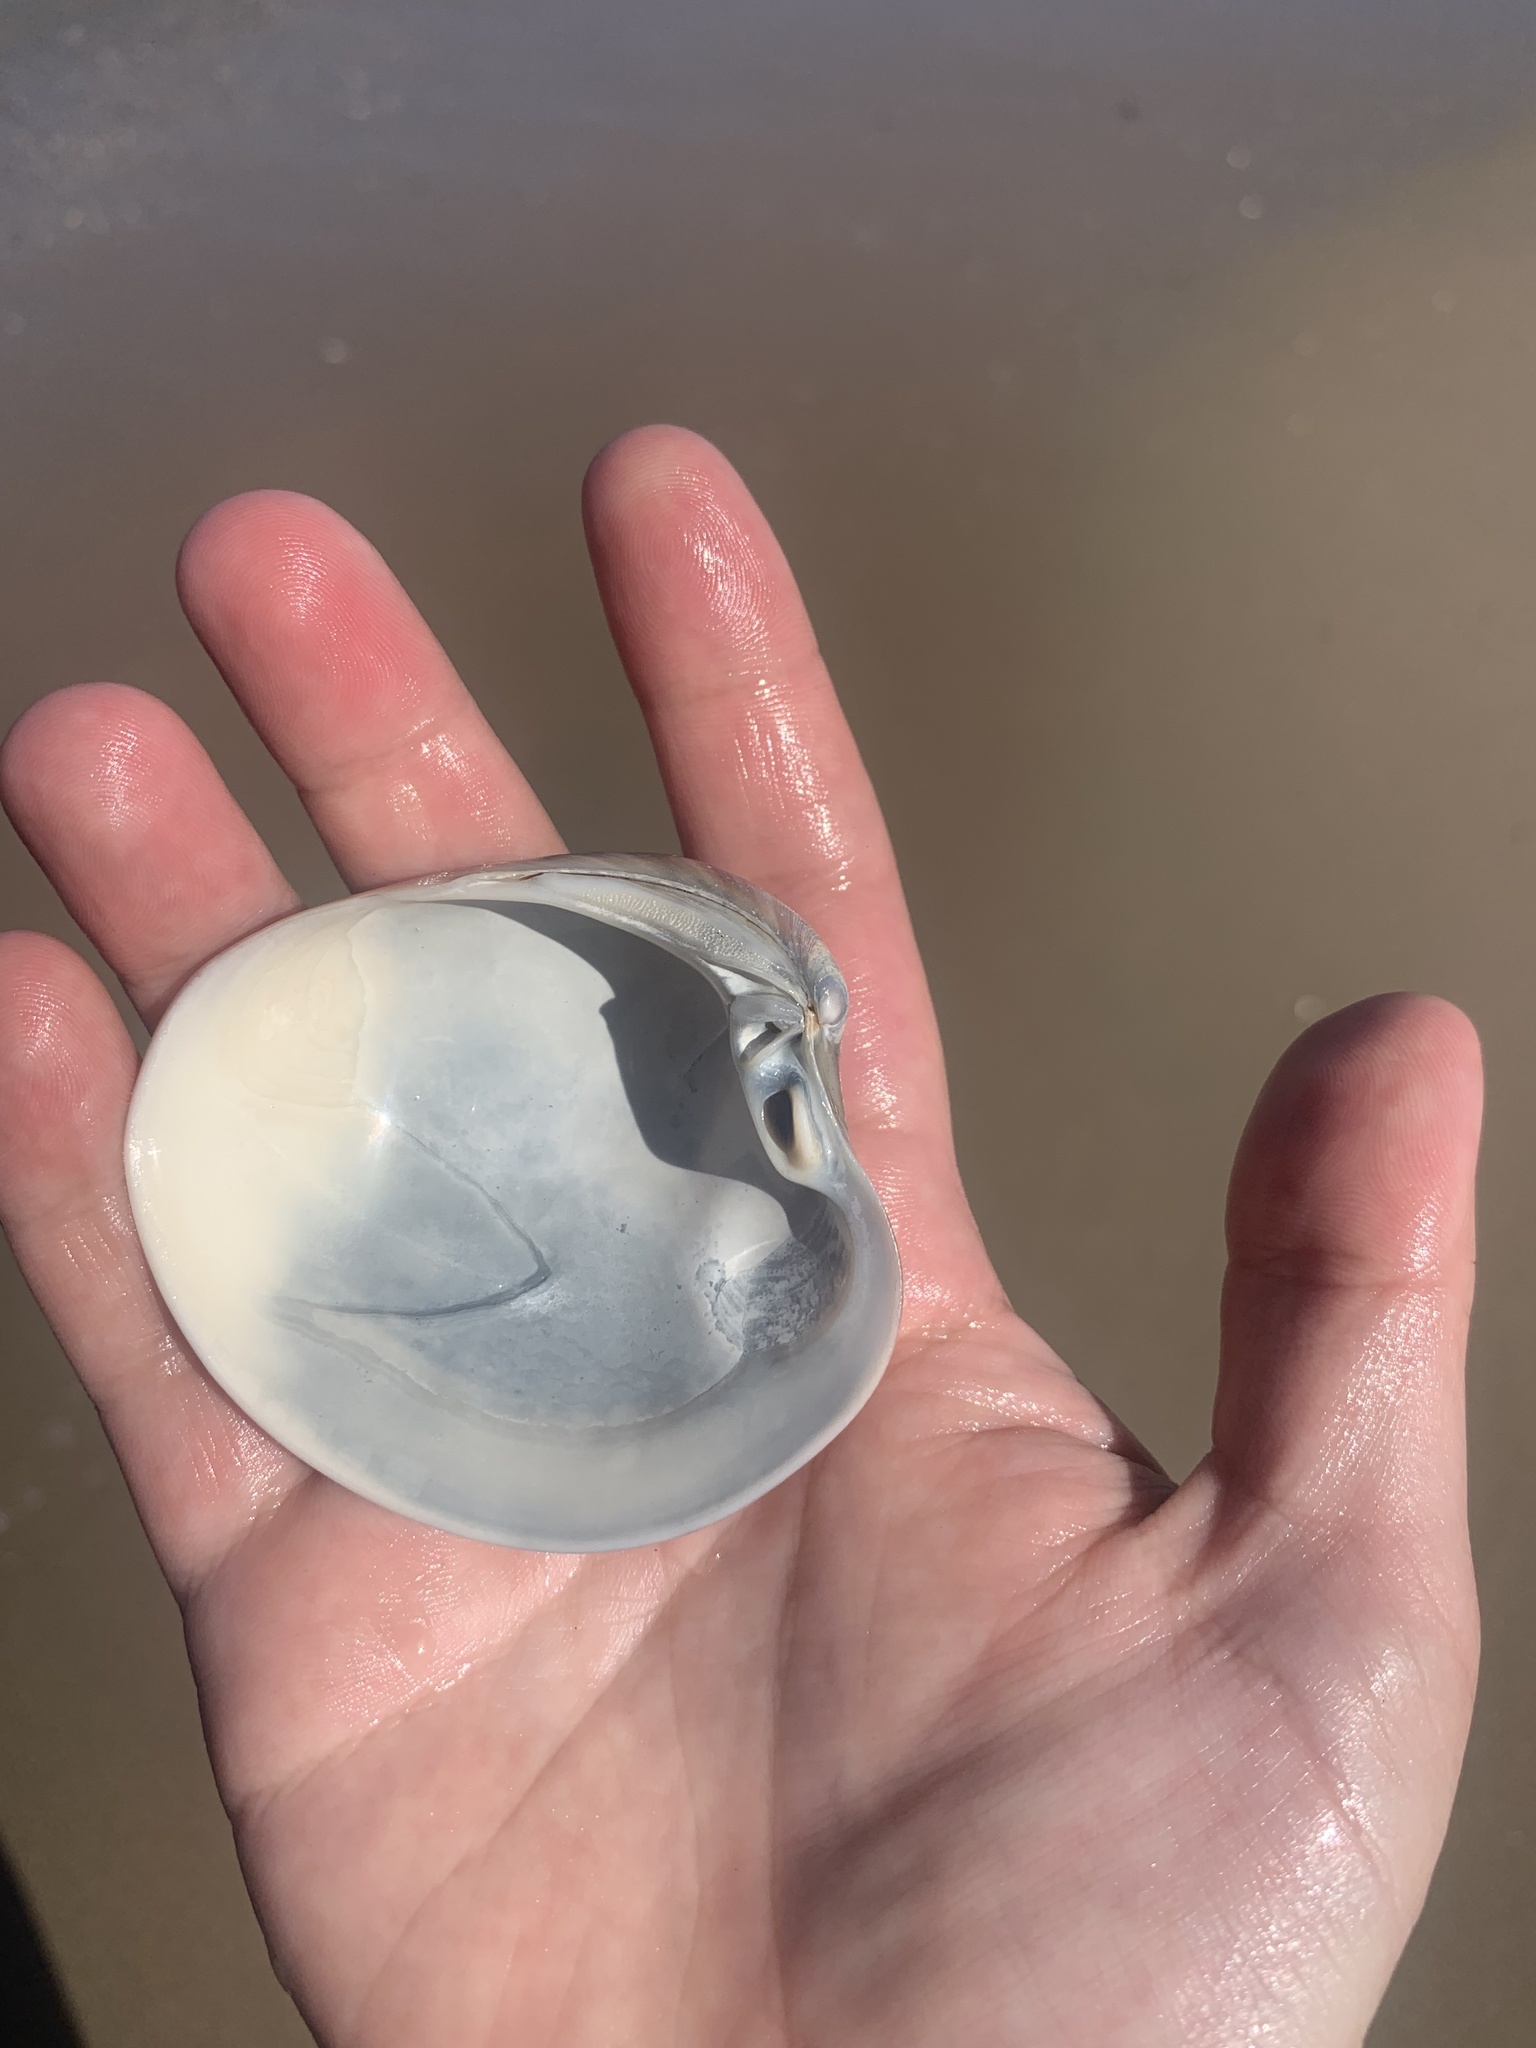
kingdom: Animalia
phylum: Mollusca
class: Bivalvia
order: Venerida
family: Veneridae
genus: Eucallista
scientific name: Eucallista purpurata
